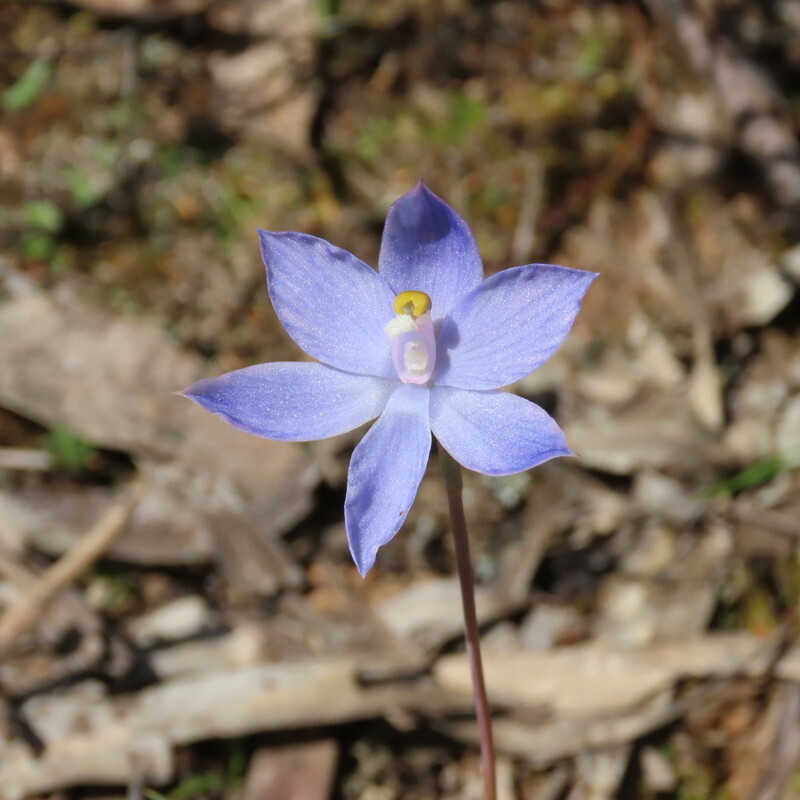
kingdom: Plantae
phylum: Tracheophyta
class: Liliopsida
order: Asparagales
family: Orchidaceae
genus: Thelymitra
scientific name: Thelymitra megcalyptra
